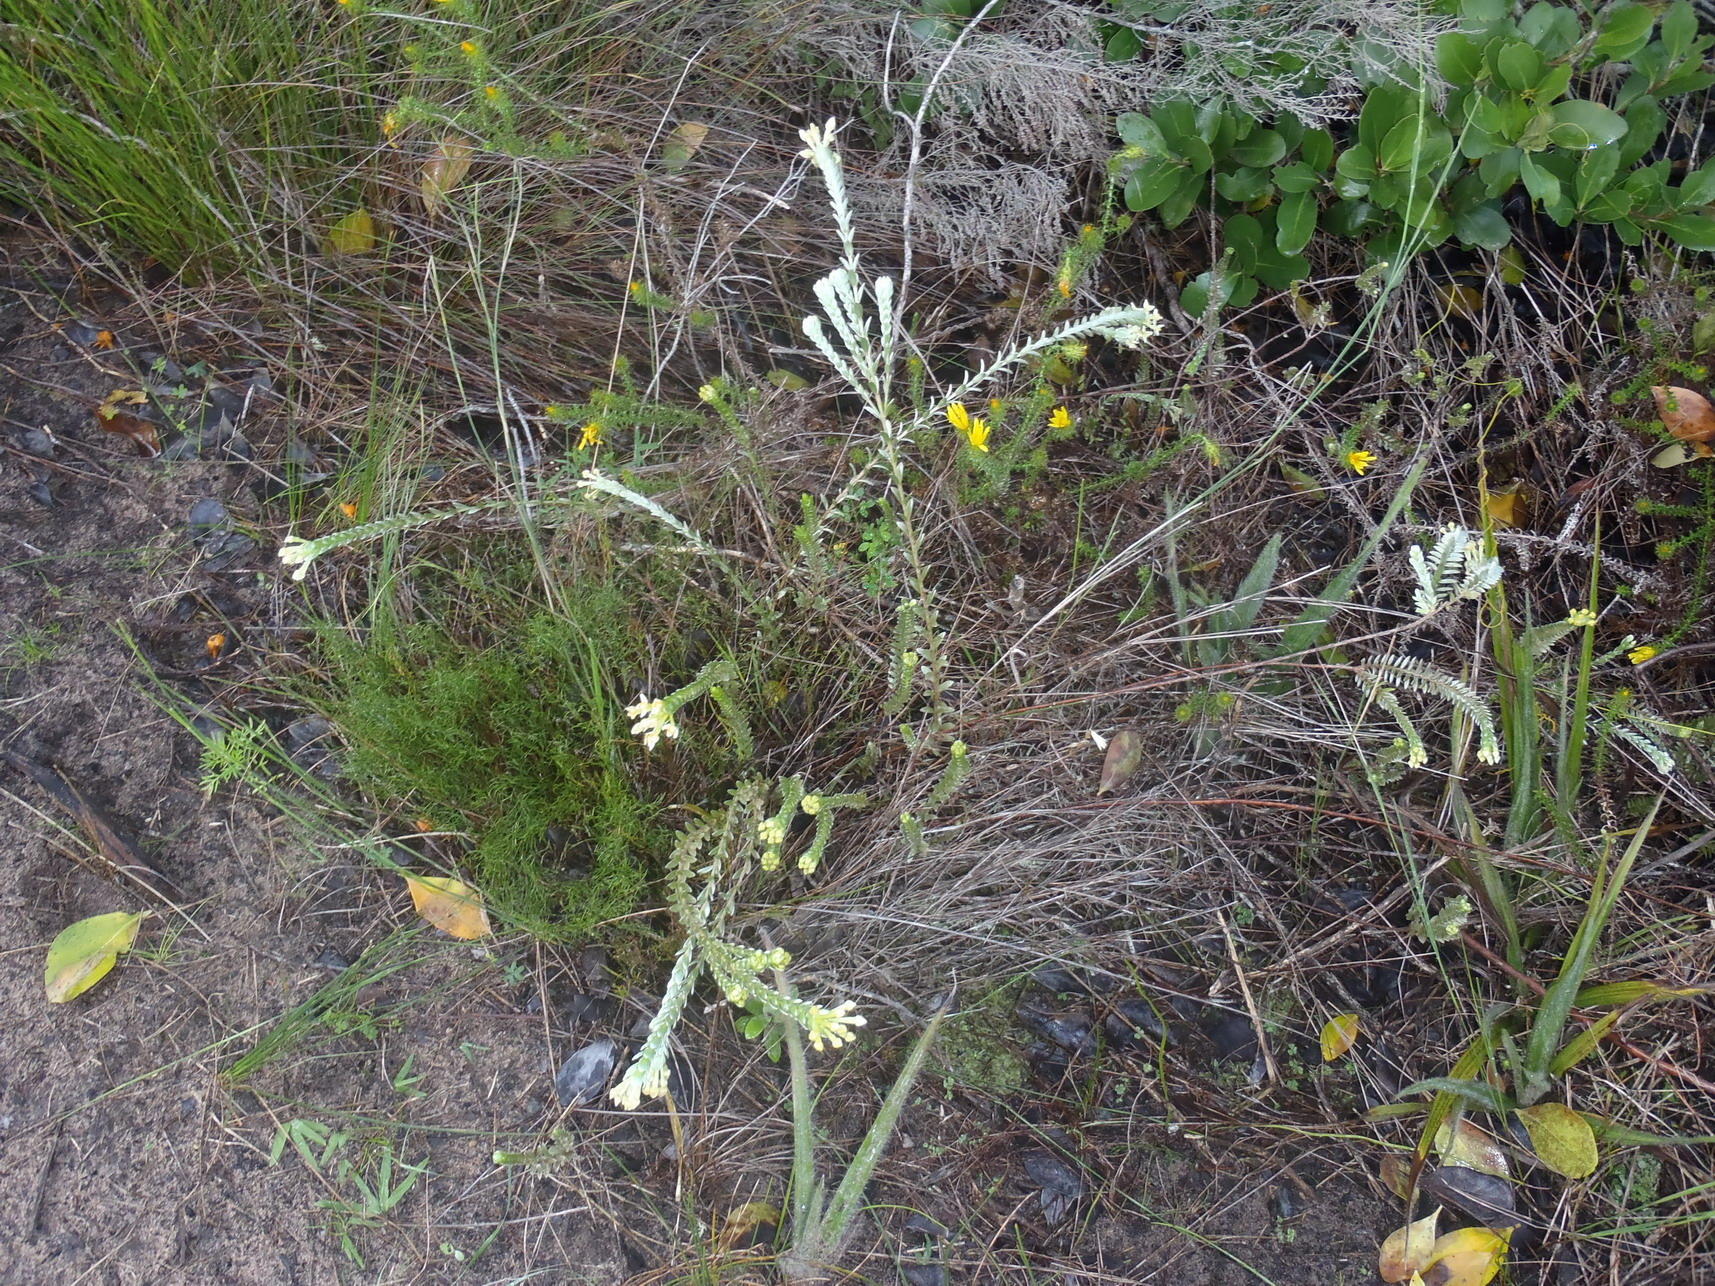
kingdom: Plantae
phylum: Tracheophyta
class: Magnoliopsida
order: Malvales
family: Thymelaeaceae
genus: Gnidia
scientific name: Gnidia chrysophylla
